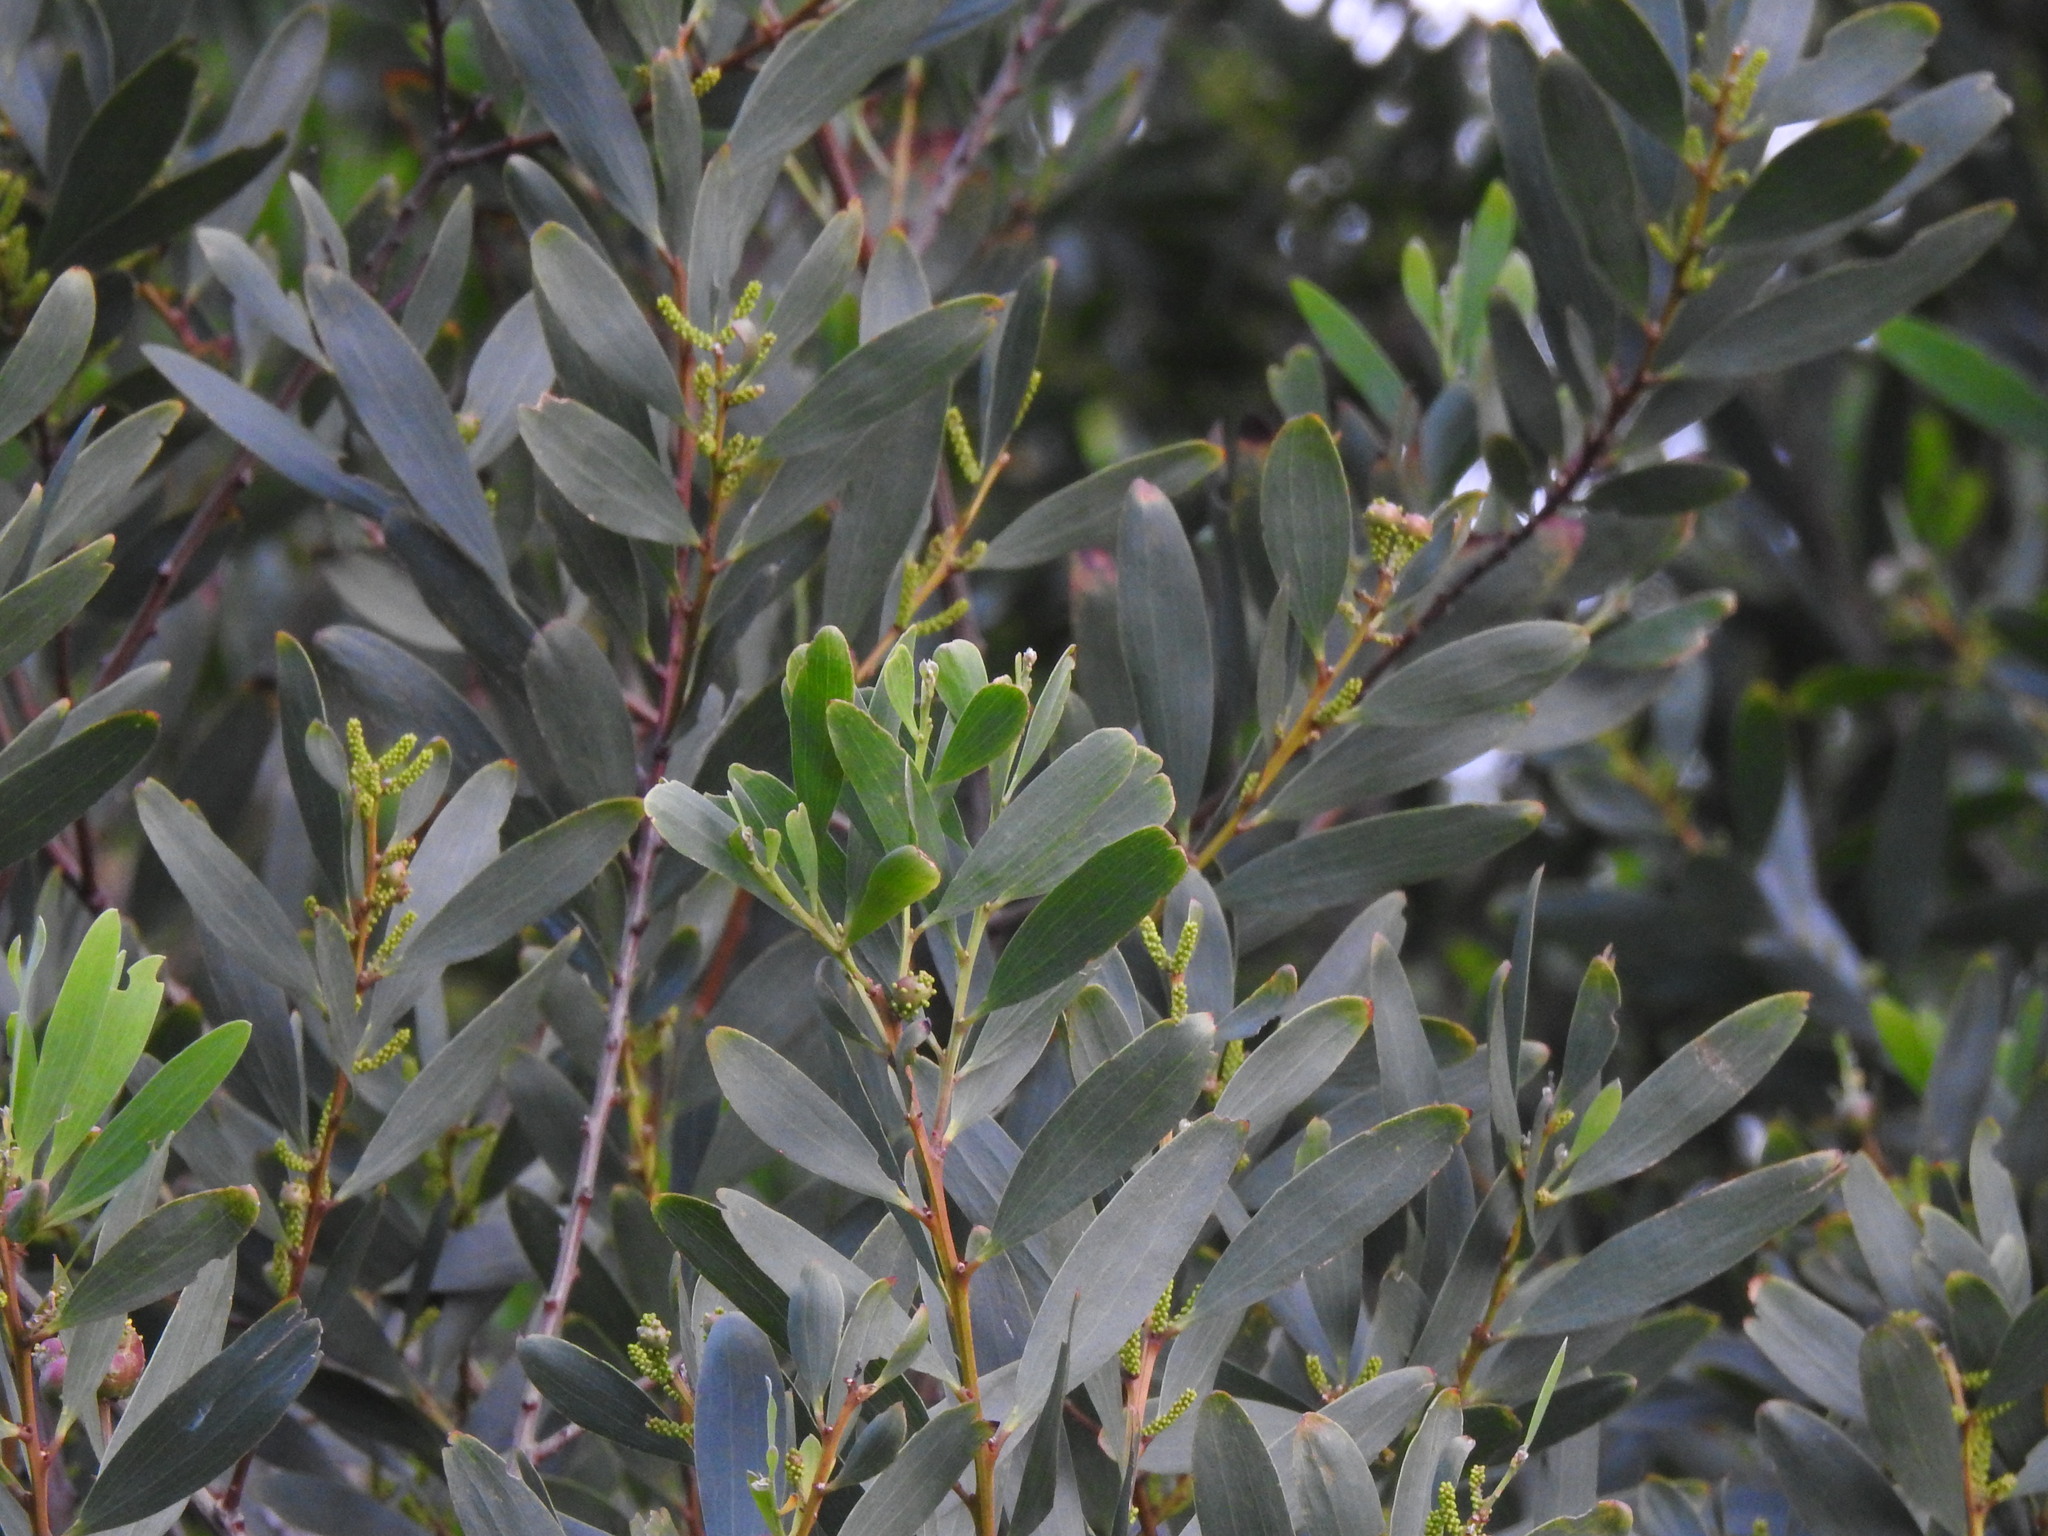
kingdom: Plantae
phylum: Tracheophyta
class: Magnoliopsida
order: Fabales
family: Fabaceae
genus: Acacia
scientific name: Acacia longifolia
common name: Sydney golden wattle
